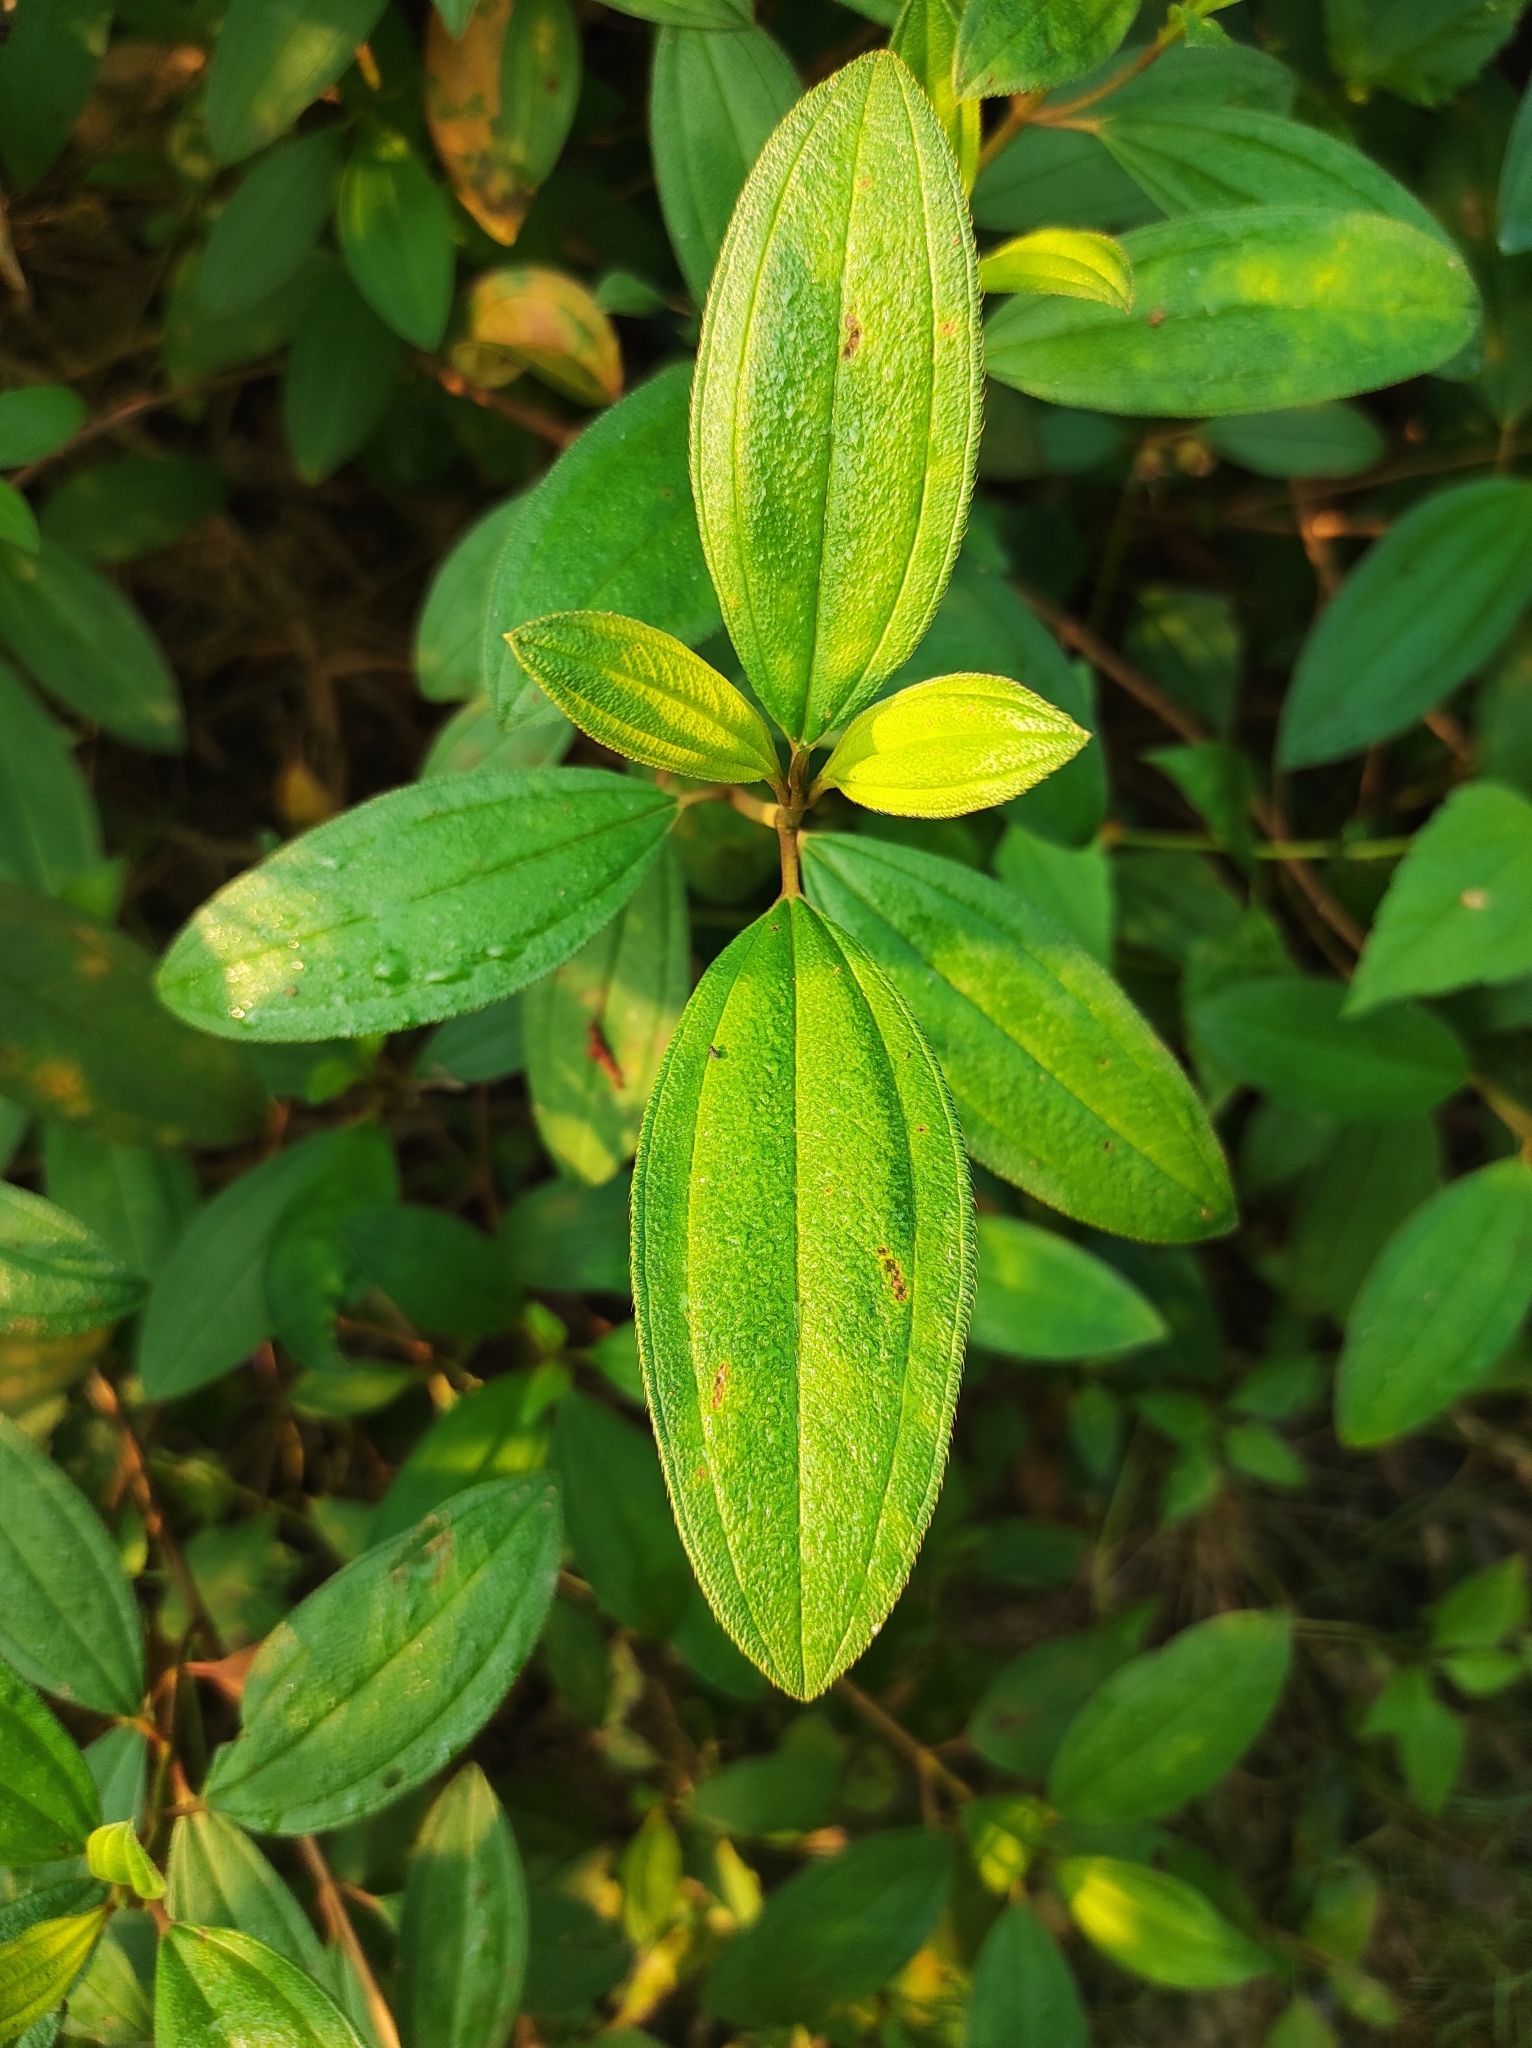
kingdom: Plantae
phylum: Tracheophyta
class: Magnoliopsida
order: Myrtales
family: Melastomataceae
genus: Melastoma
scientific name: Melastoma malabathricum
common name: Indian-rhododendron
